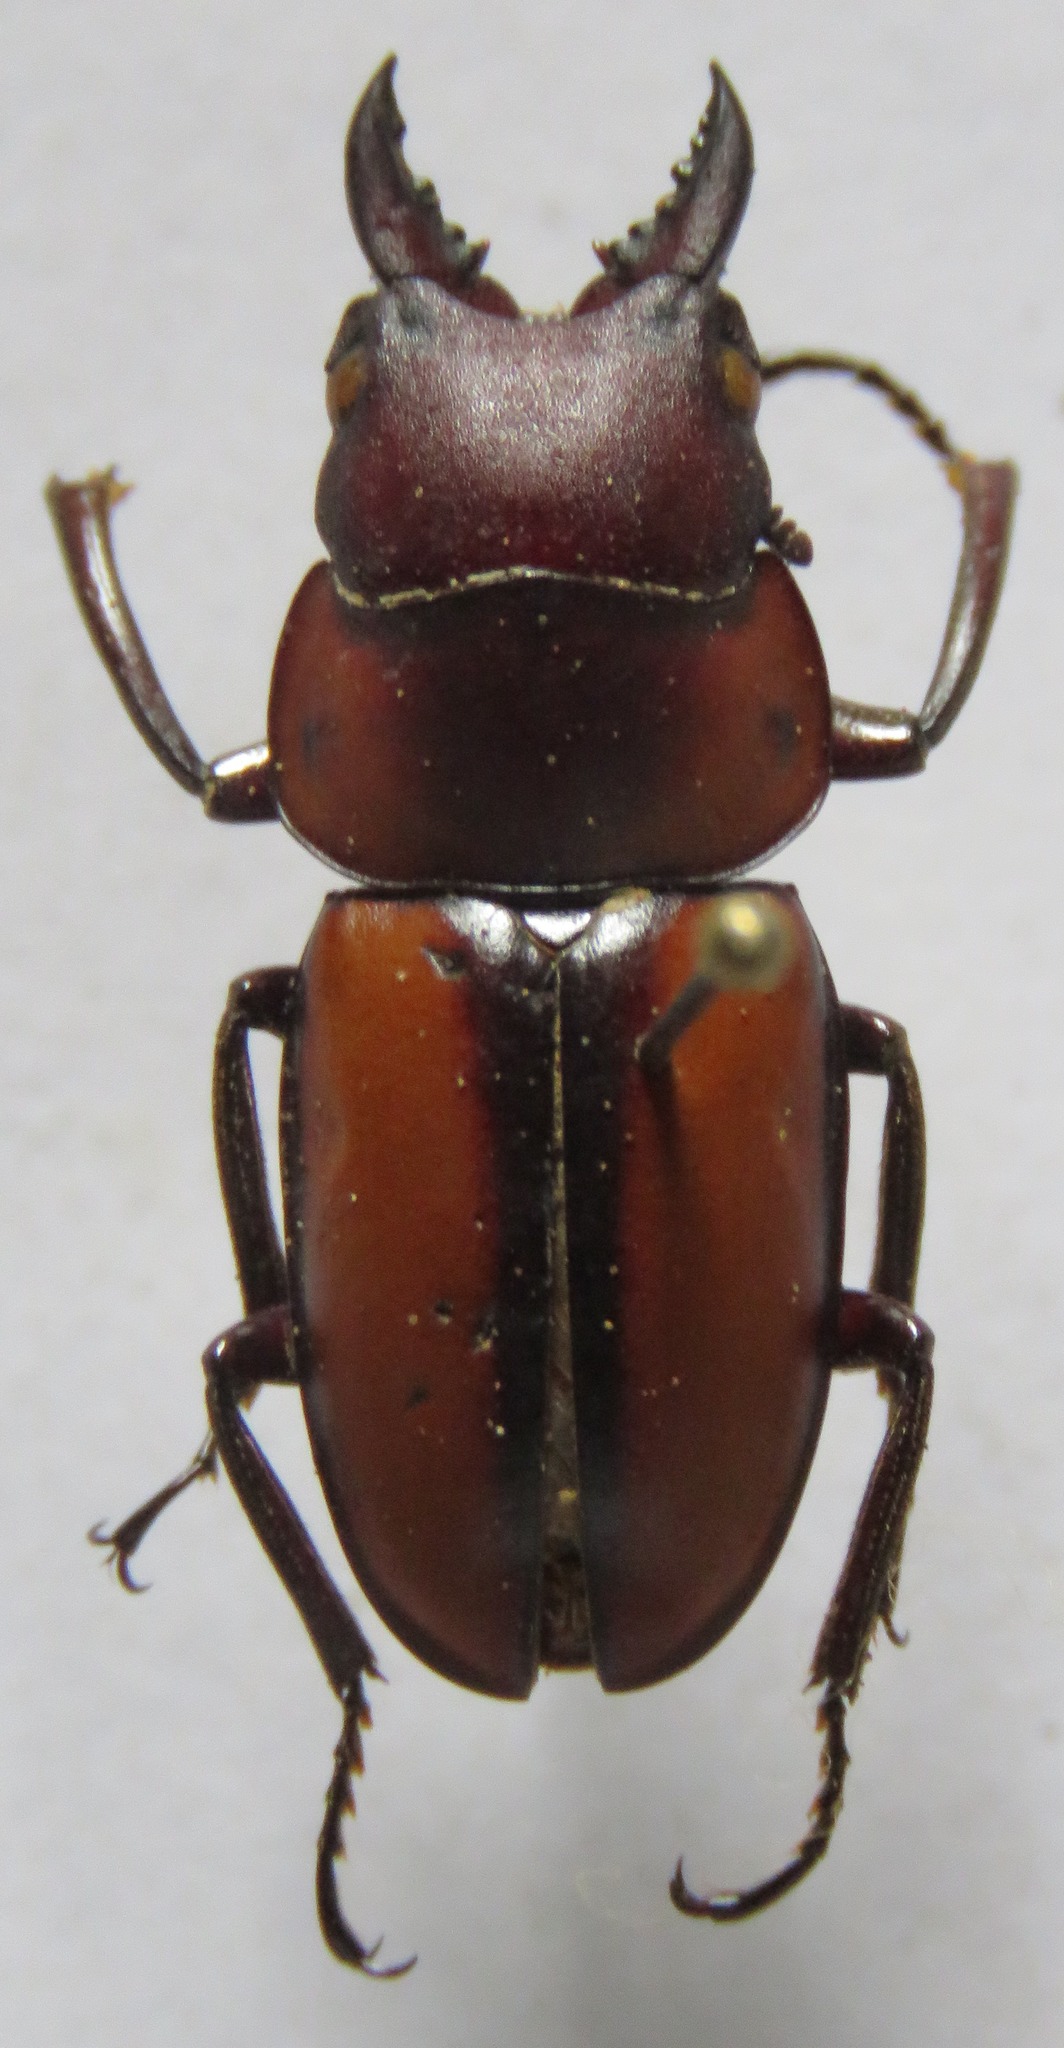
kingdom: Animalia
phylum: Arthropoda
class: Insecta
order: Coleoptera
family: Lucanidae
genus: Prosopocoilus
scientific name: Prosopocoilus girardi
